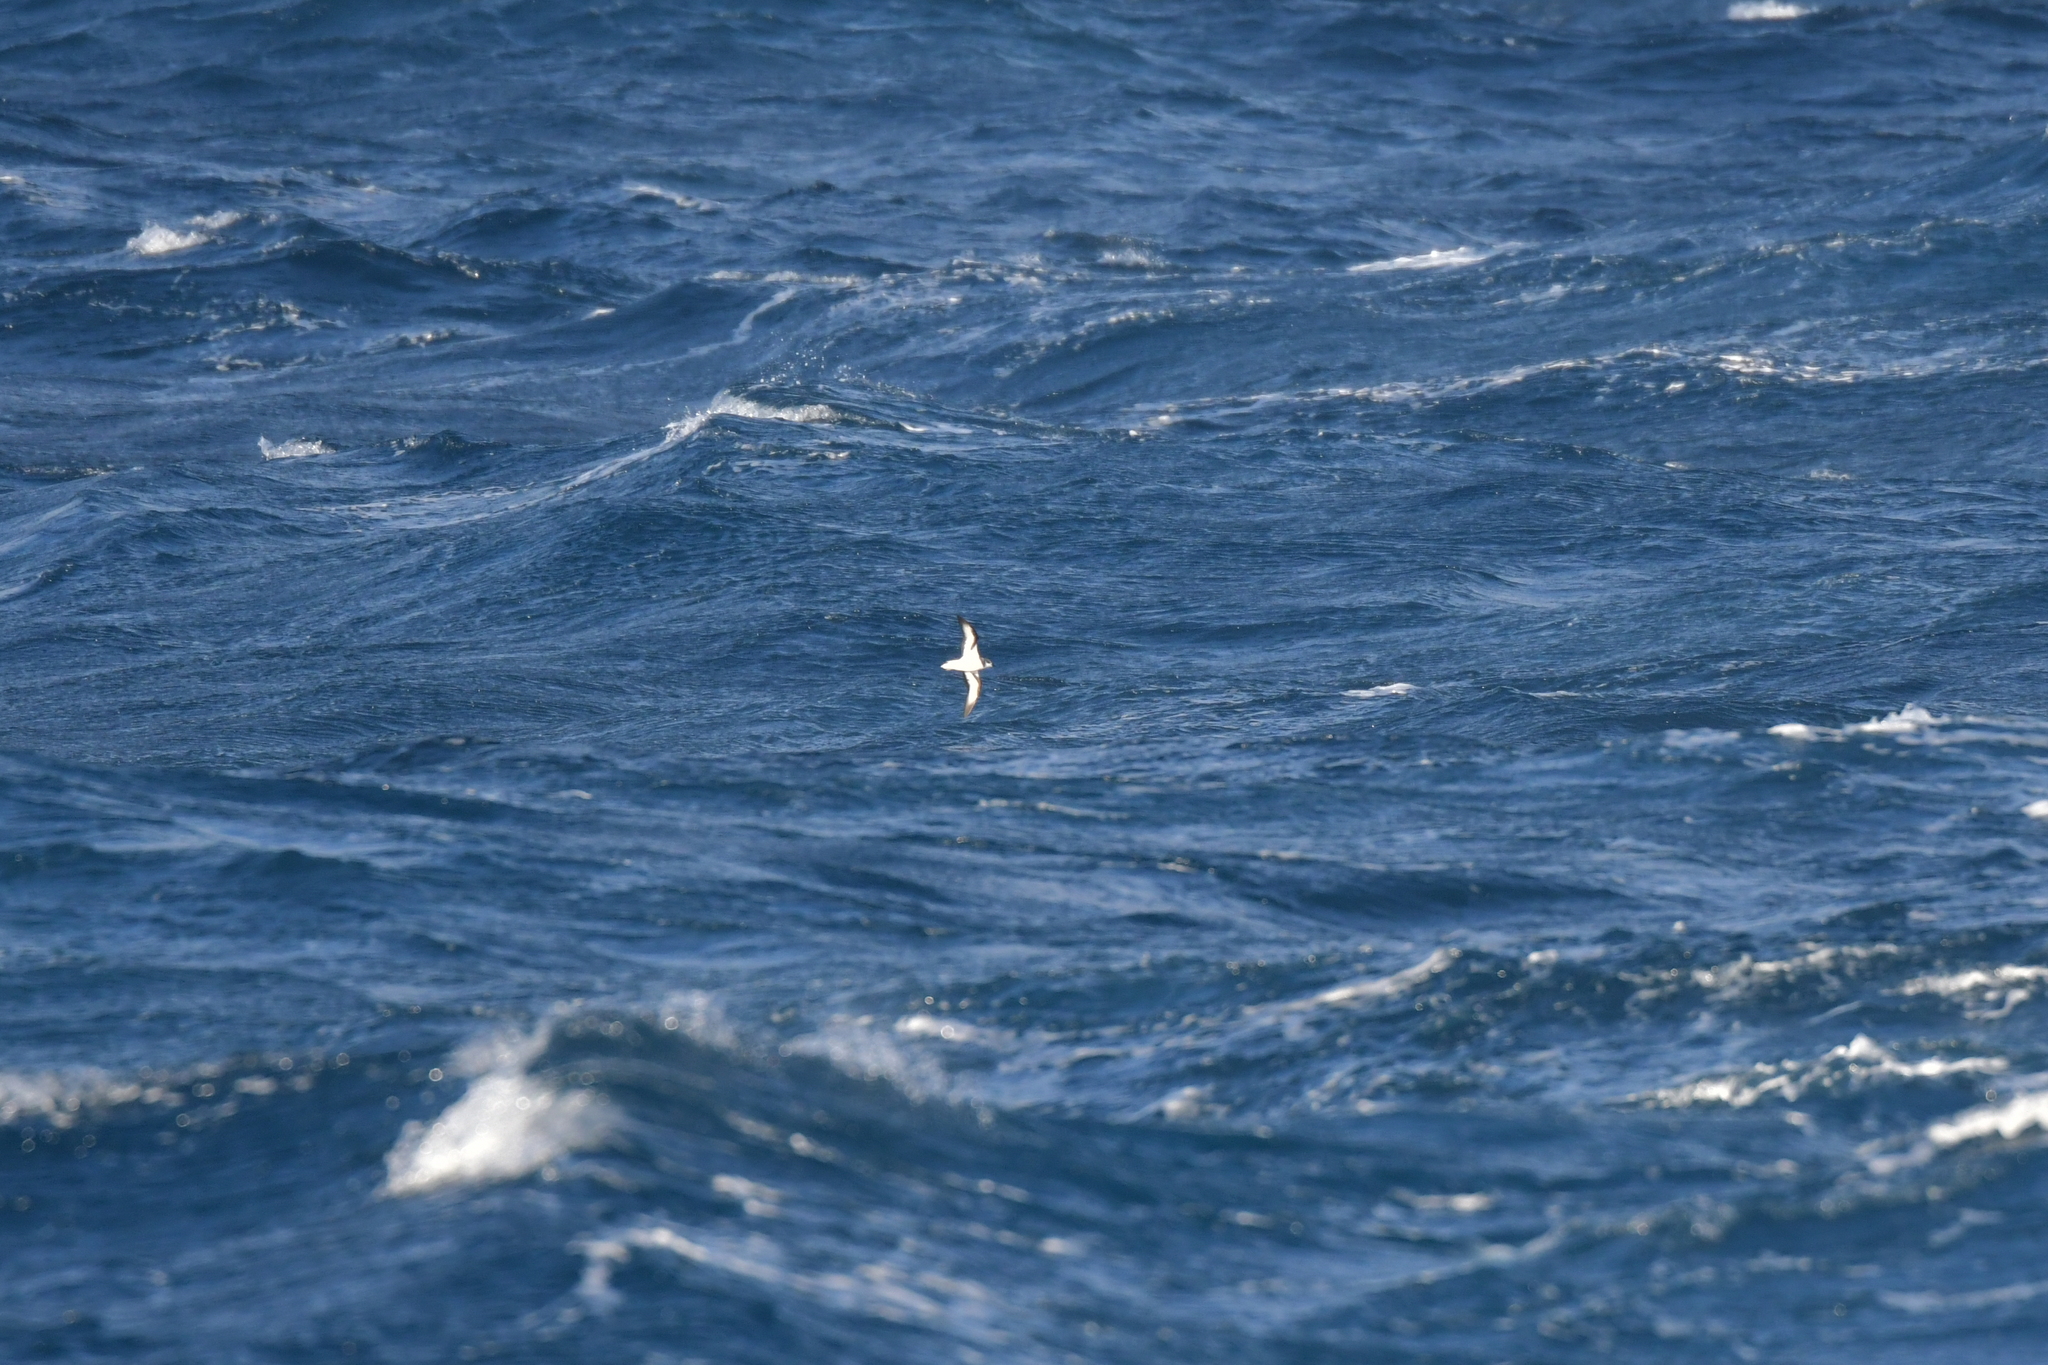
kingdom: Animalia
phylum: Chordata
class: Aves
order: Procellariiformes
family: Procellariidae
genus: Pterodroma
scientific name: Pterodroma nigripennis
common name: Black-winged petrel
